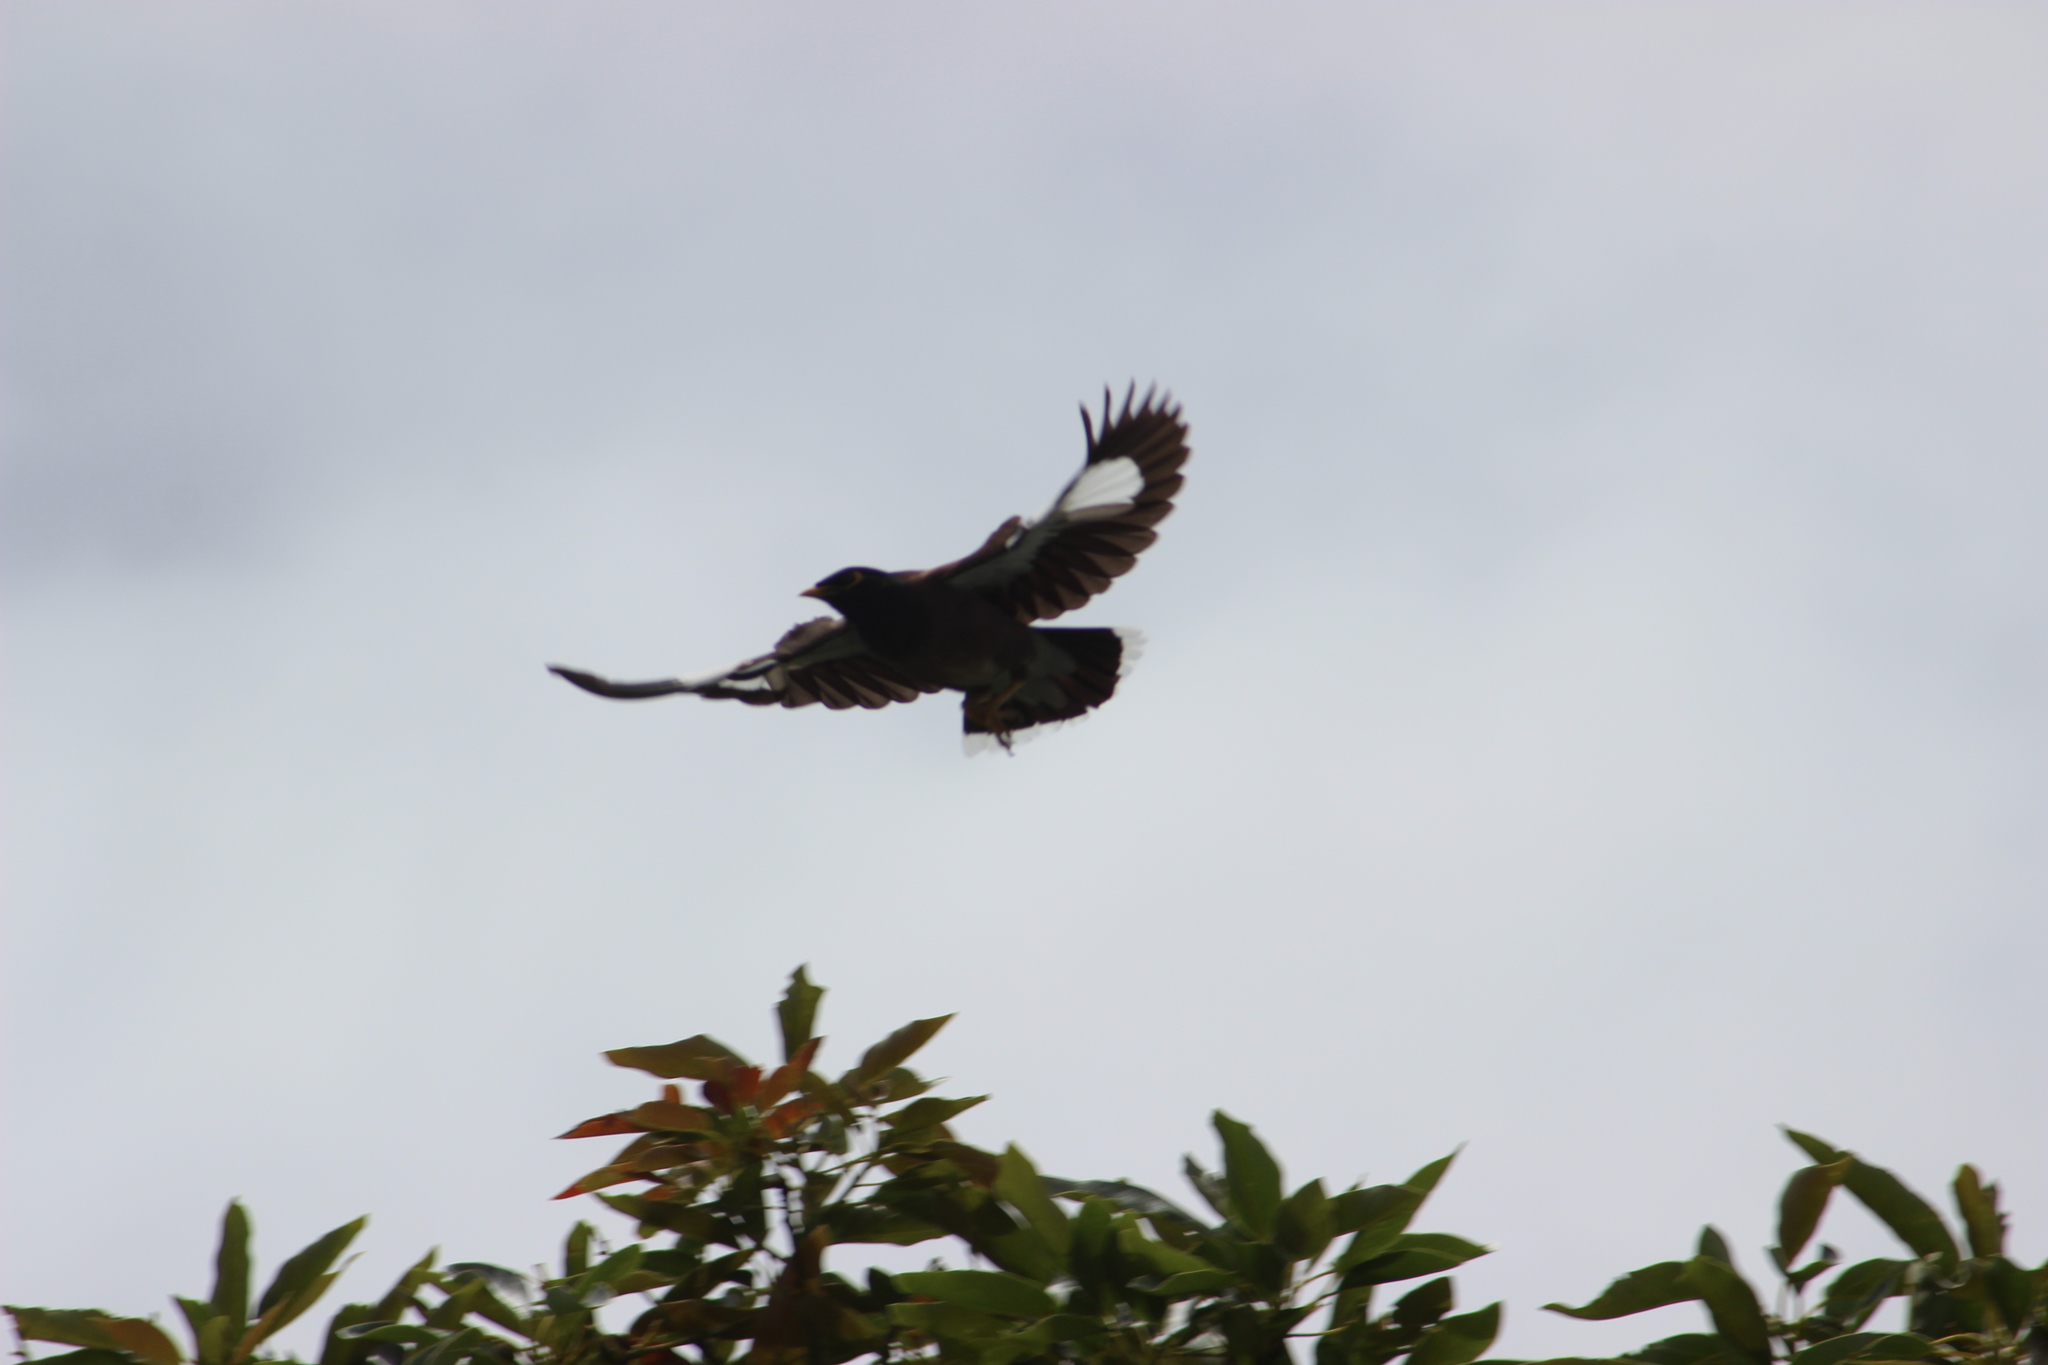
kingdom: Animalia
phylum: Chordata
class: Aves
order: Passeriformes
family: Sturnidae
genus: Acridotheres
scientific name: Acridotheres tristis
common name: Common myna
